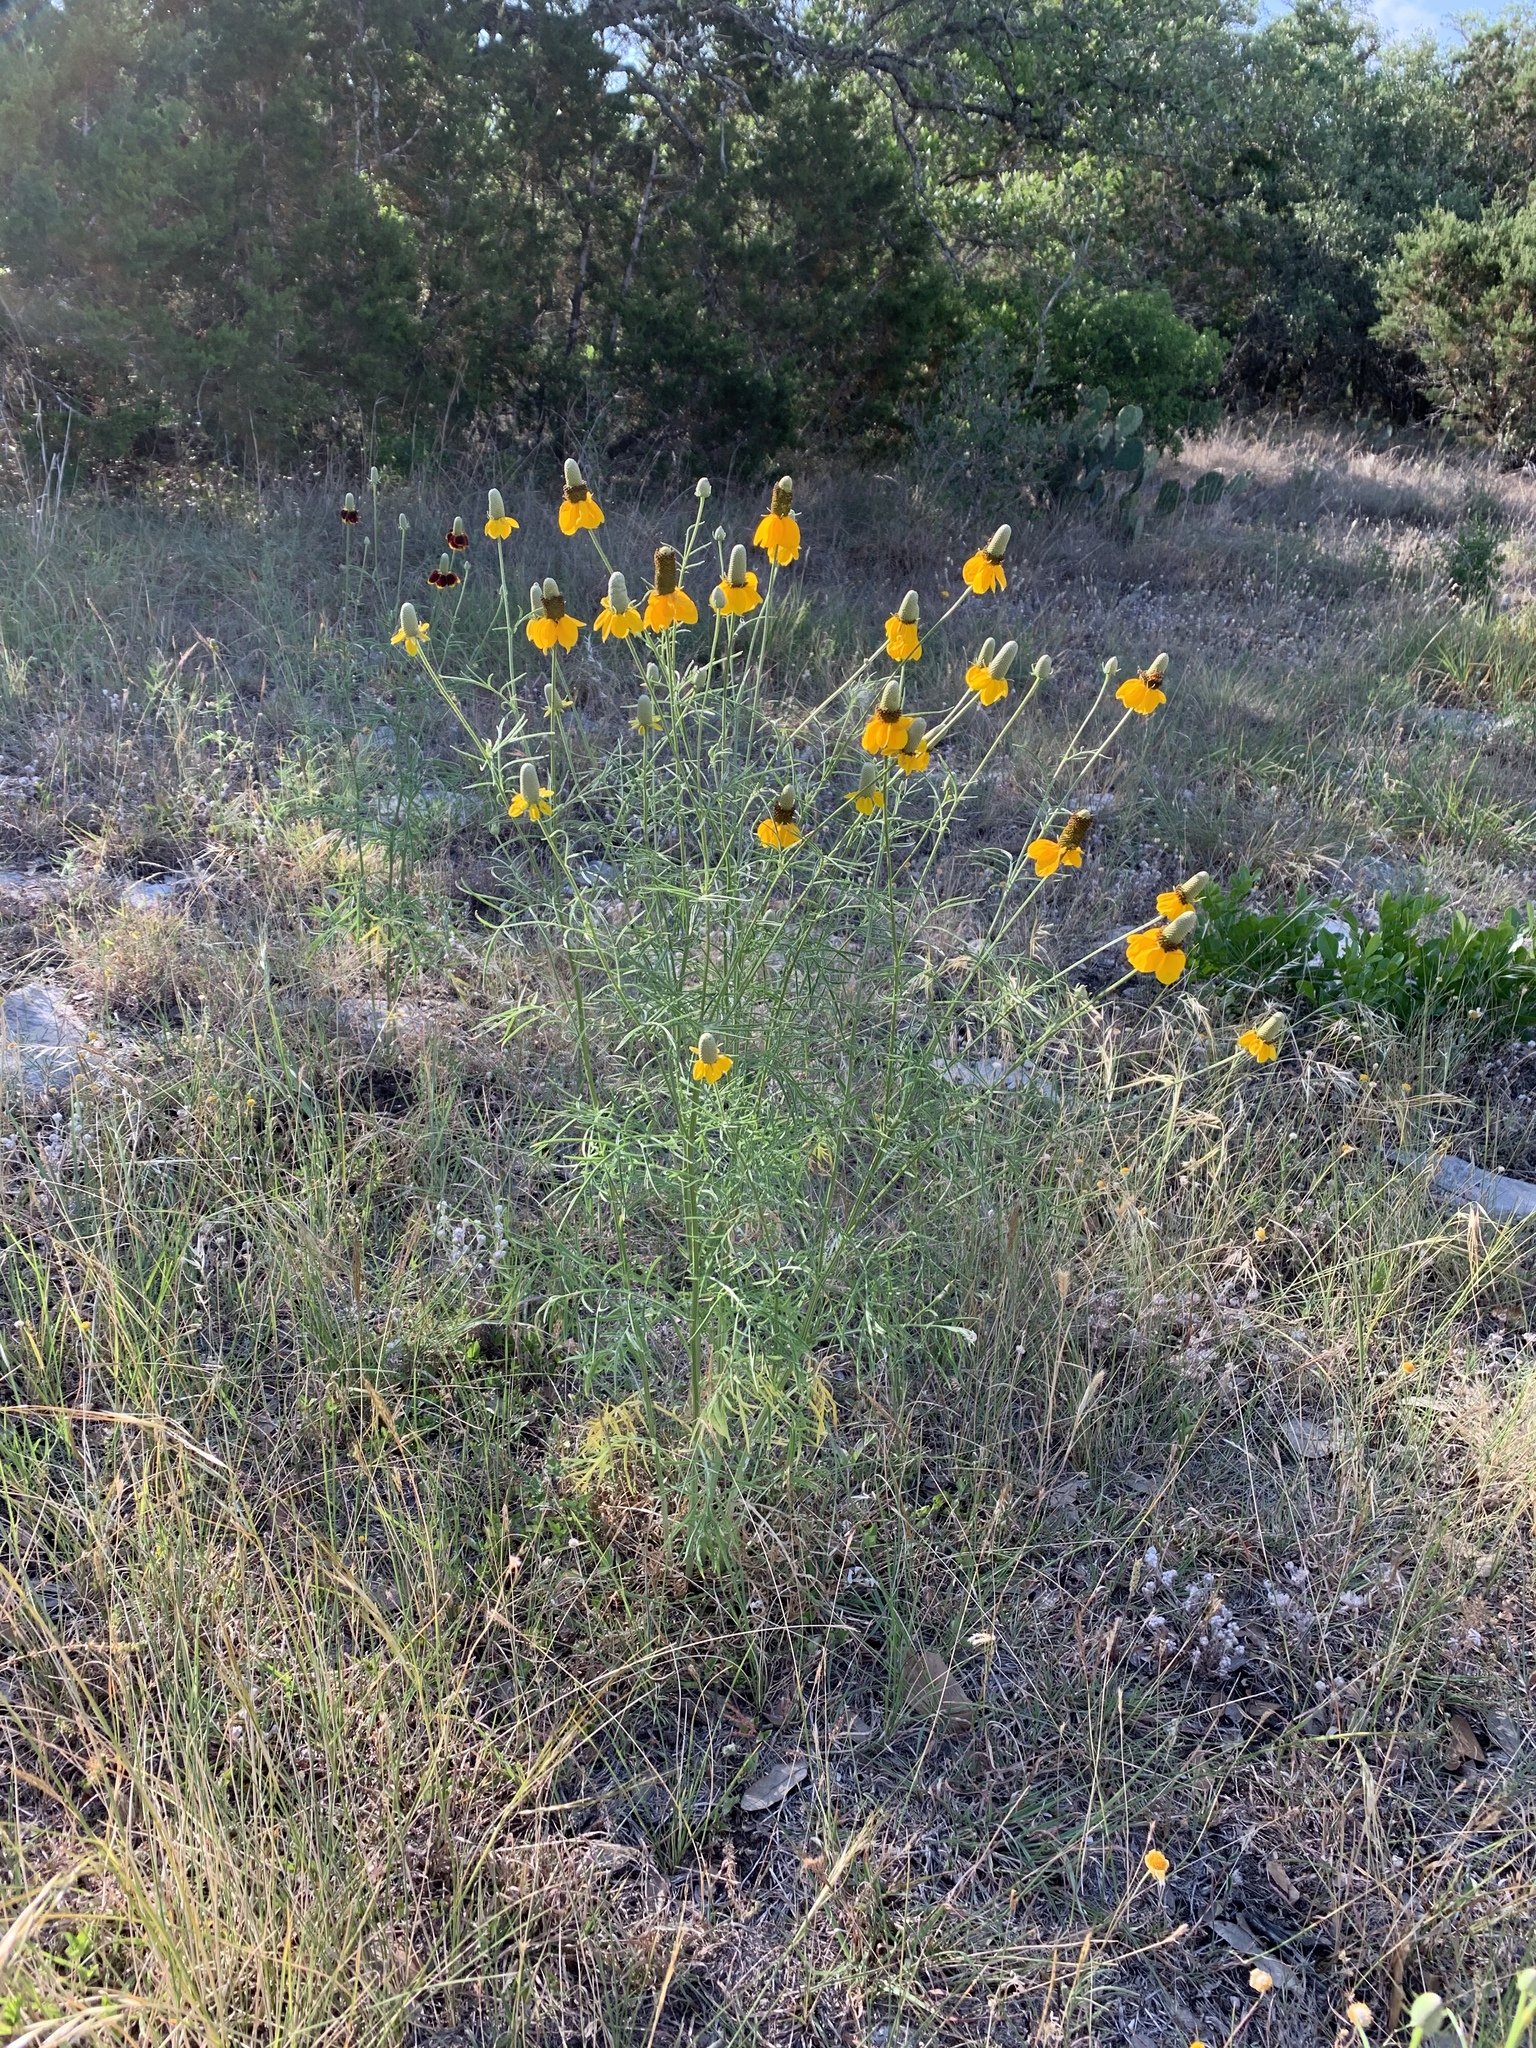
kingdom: Plantae
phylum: Tracheophyta
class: Magnoliopsida
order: Asterales
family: Asteraceae
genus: Ratibida
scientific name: Ratibida columnifera
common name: Prairie coneflower
